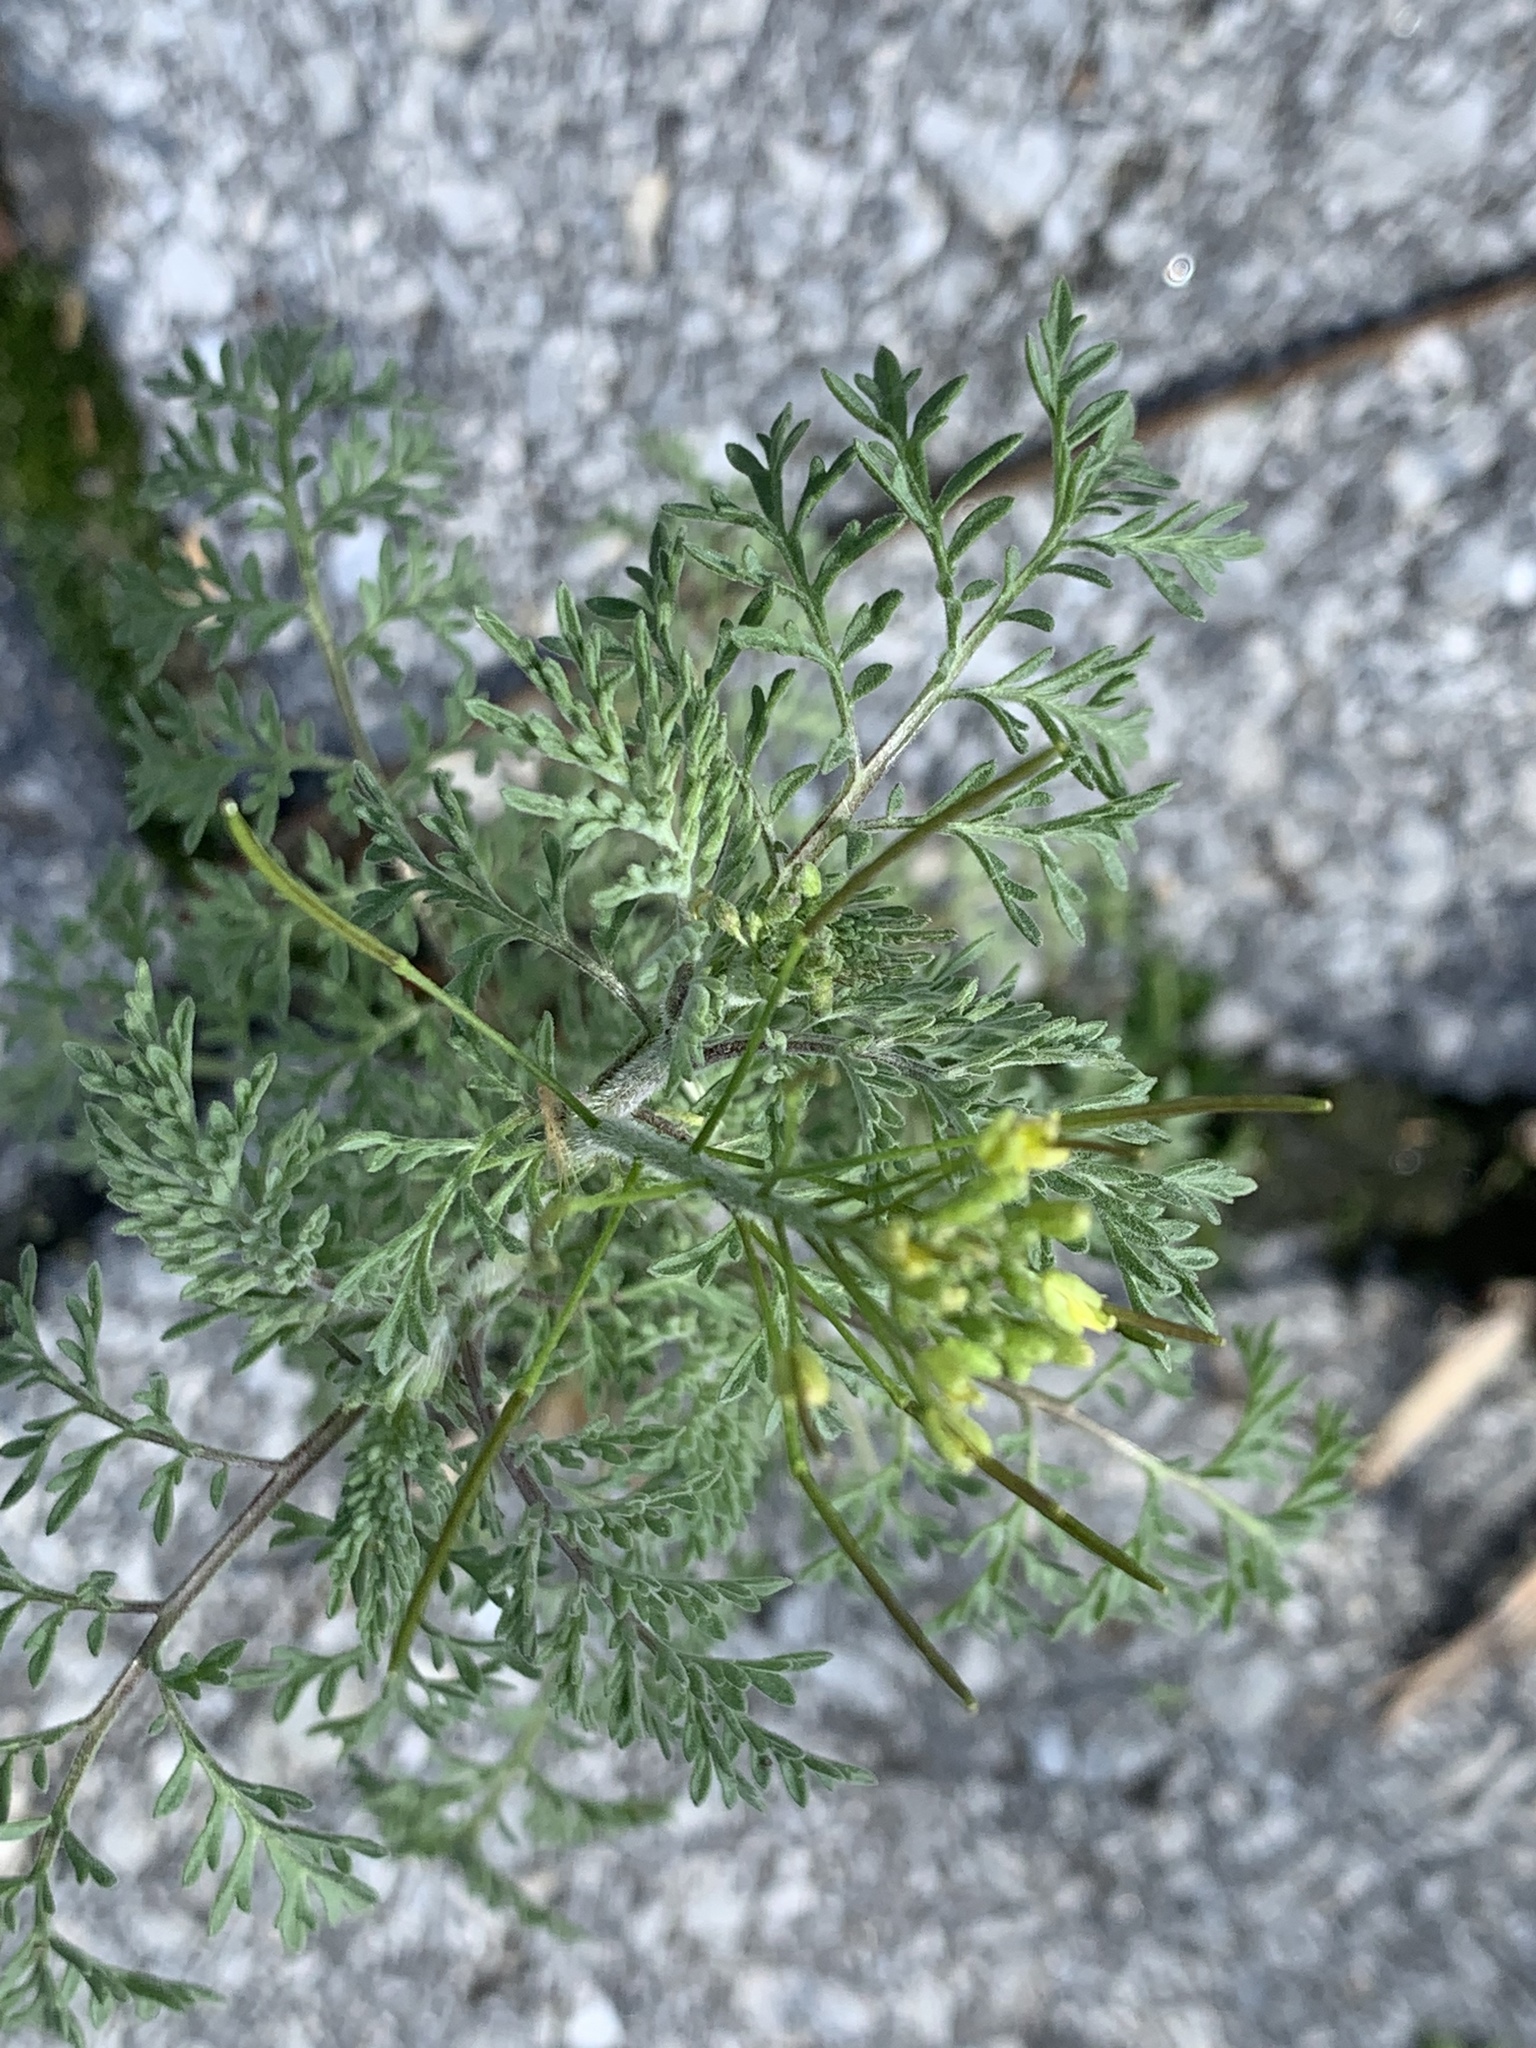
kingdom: Plantae
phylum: Tracheophyta
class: Magnoliopsida
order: Brassicales
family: Brassicaceae
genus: Descurainia
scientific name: Descurainia sophia
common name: Flixweed
